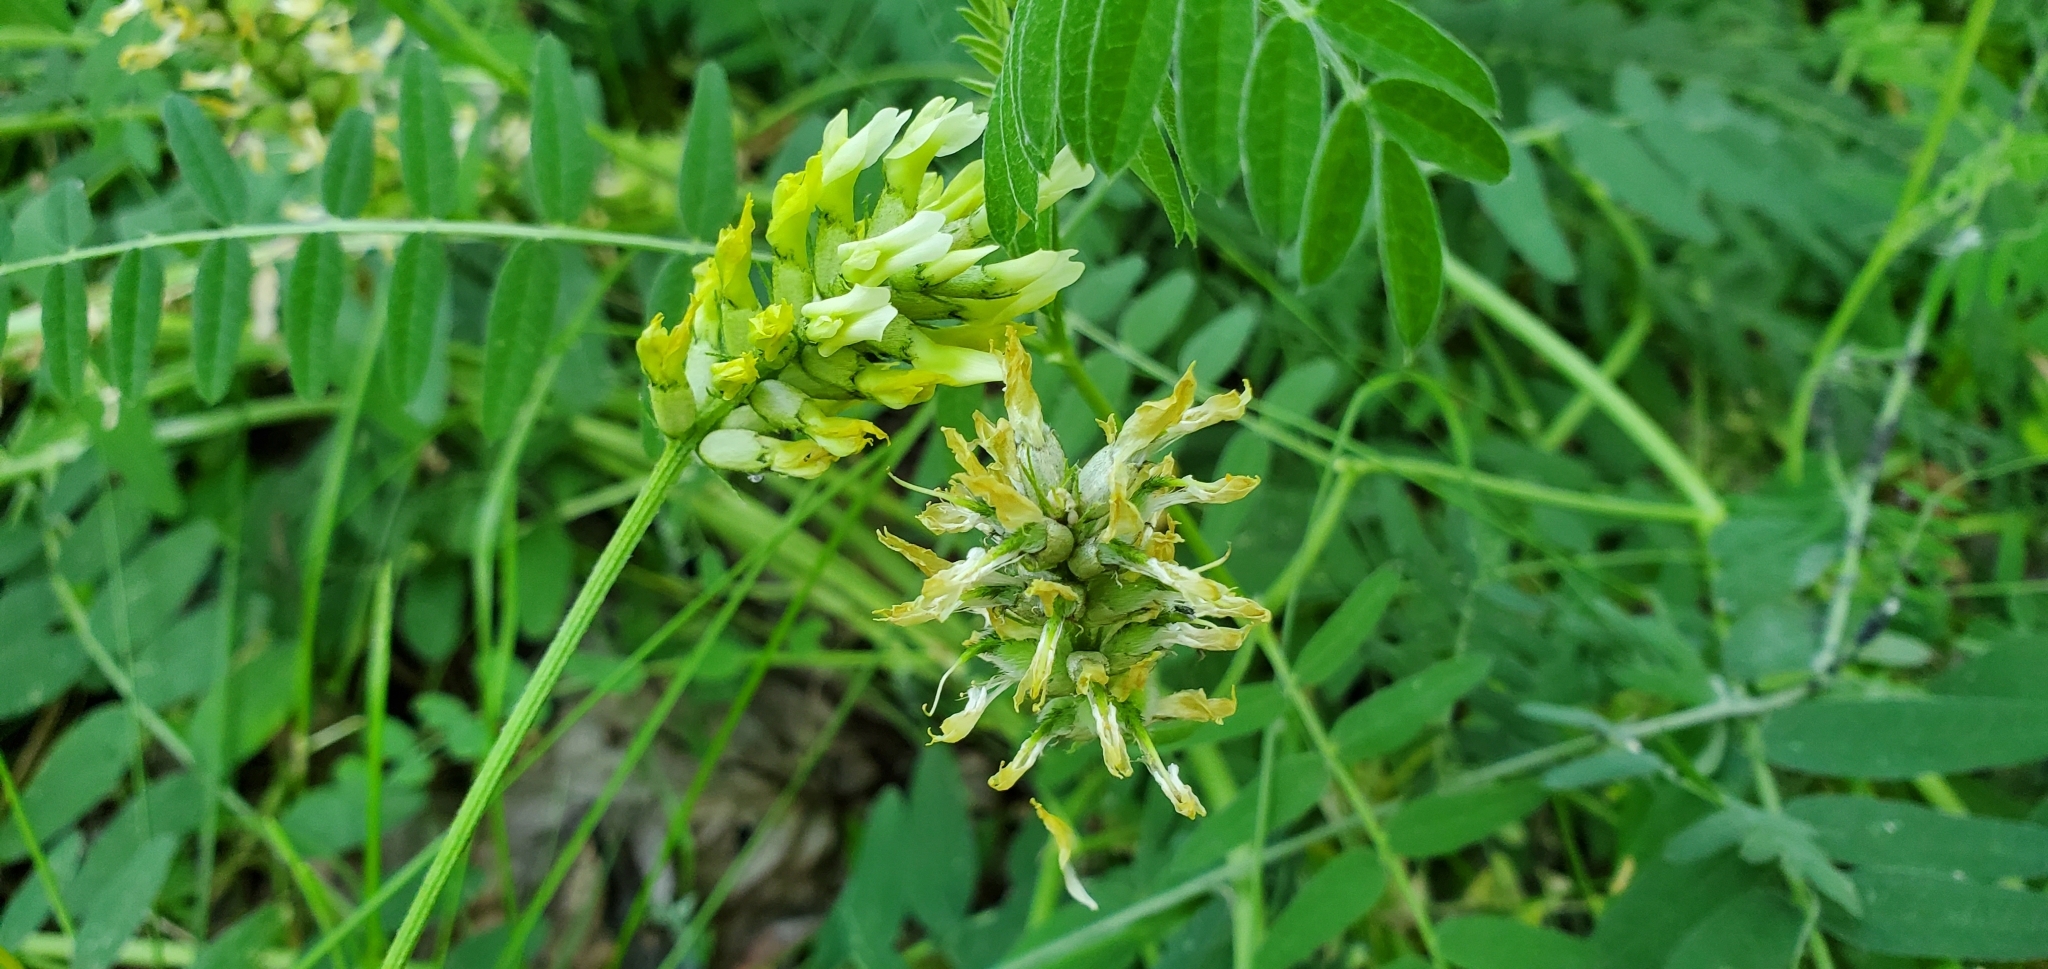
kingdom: Plantae
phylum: Tracheophyta
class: Magnoliopsida
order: Fabales
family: Fabaceae
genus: Astragalus
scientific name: Astragalus cicer
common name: Chick-pea milk-vetch
